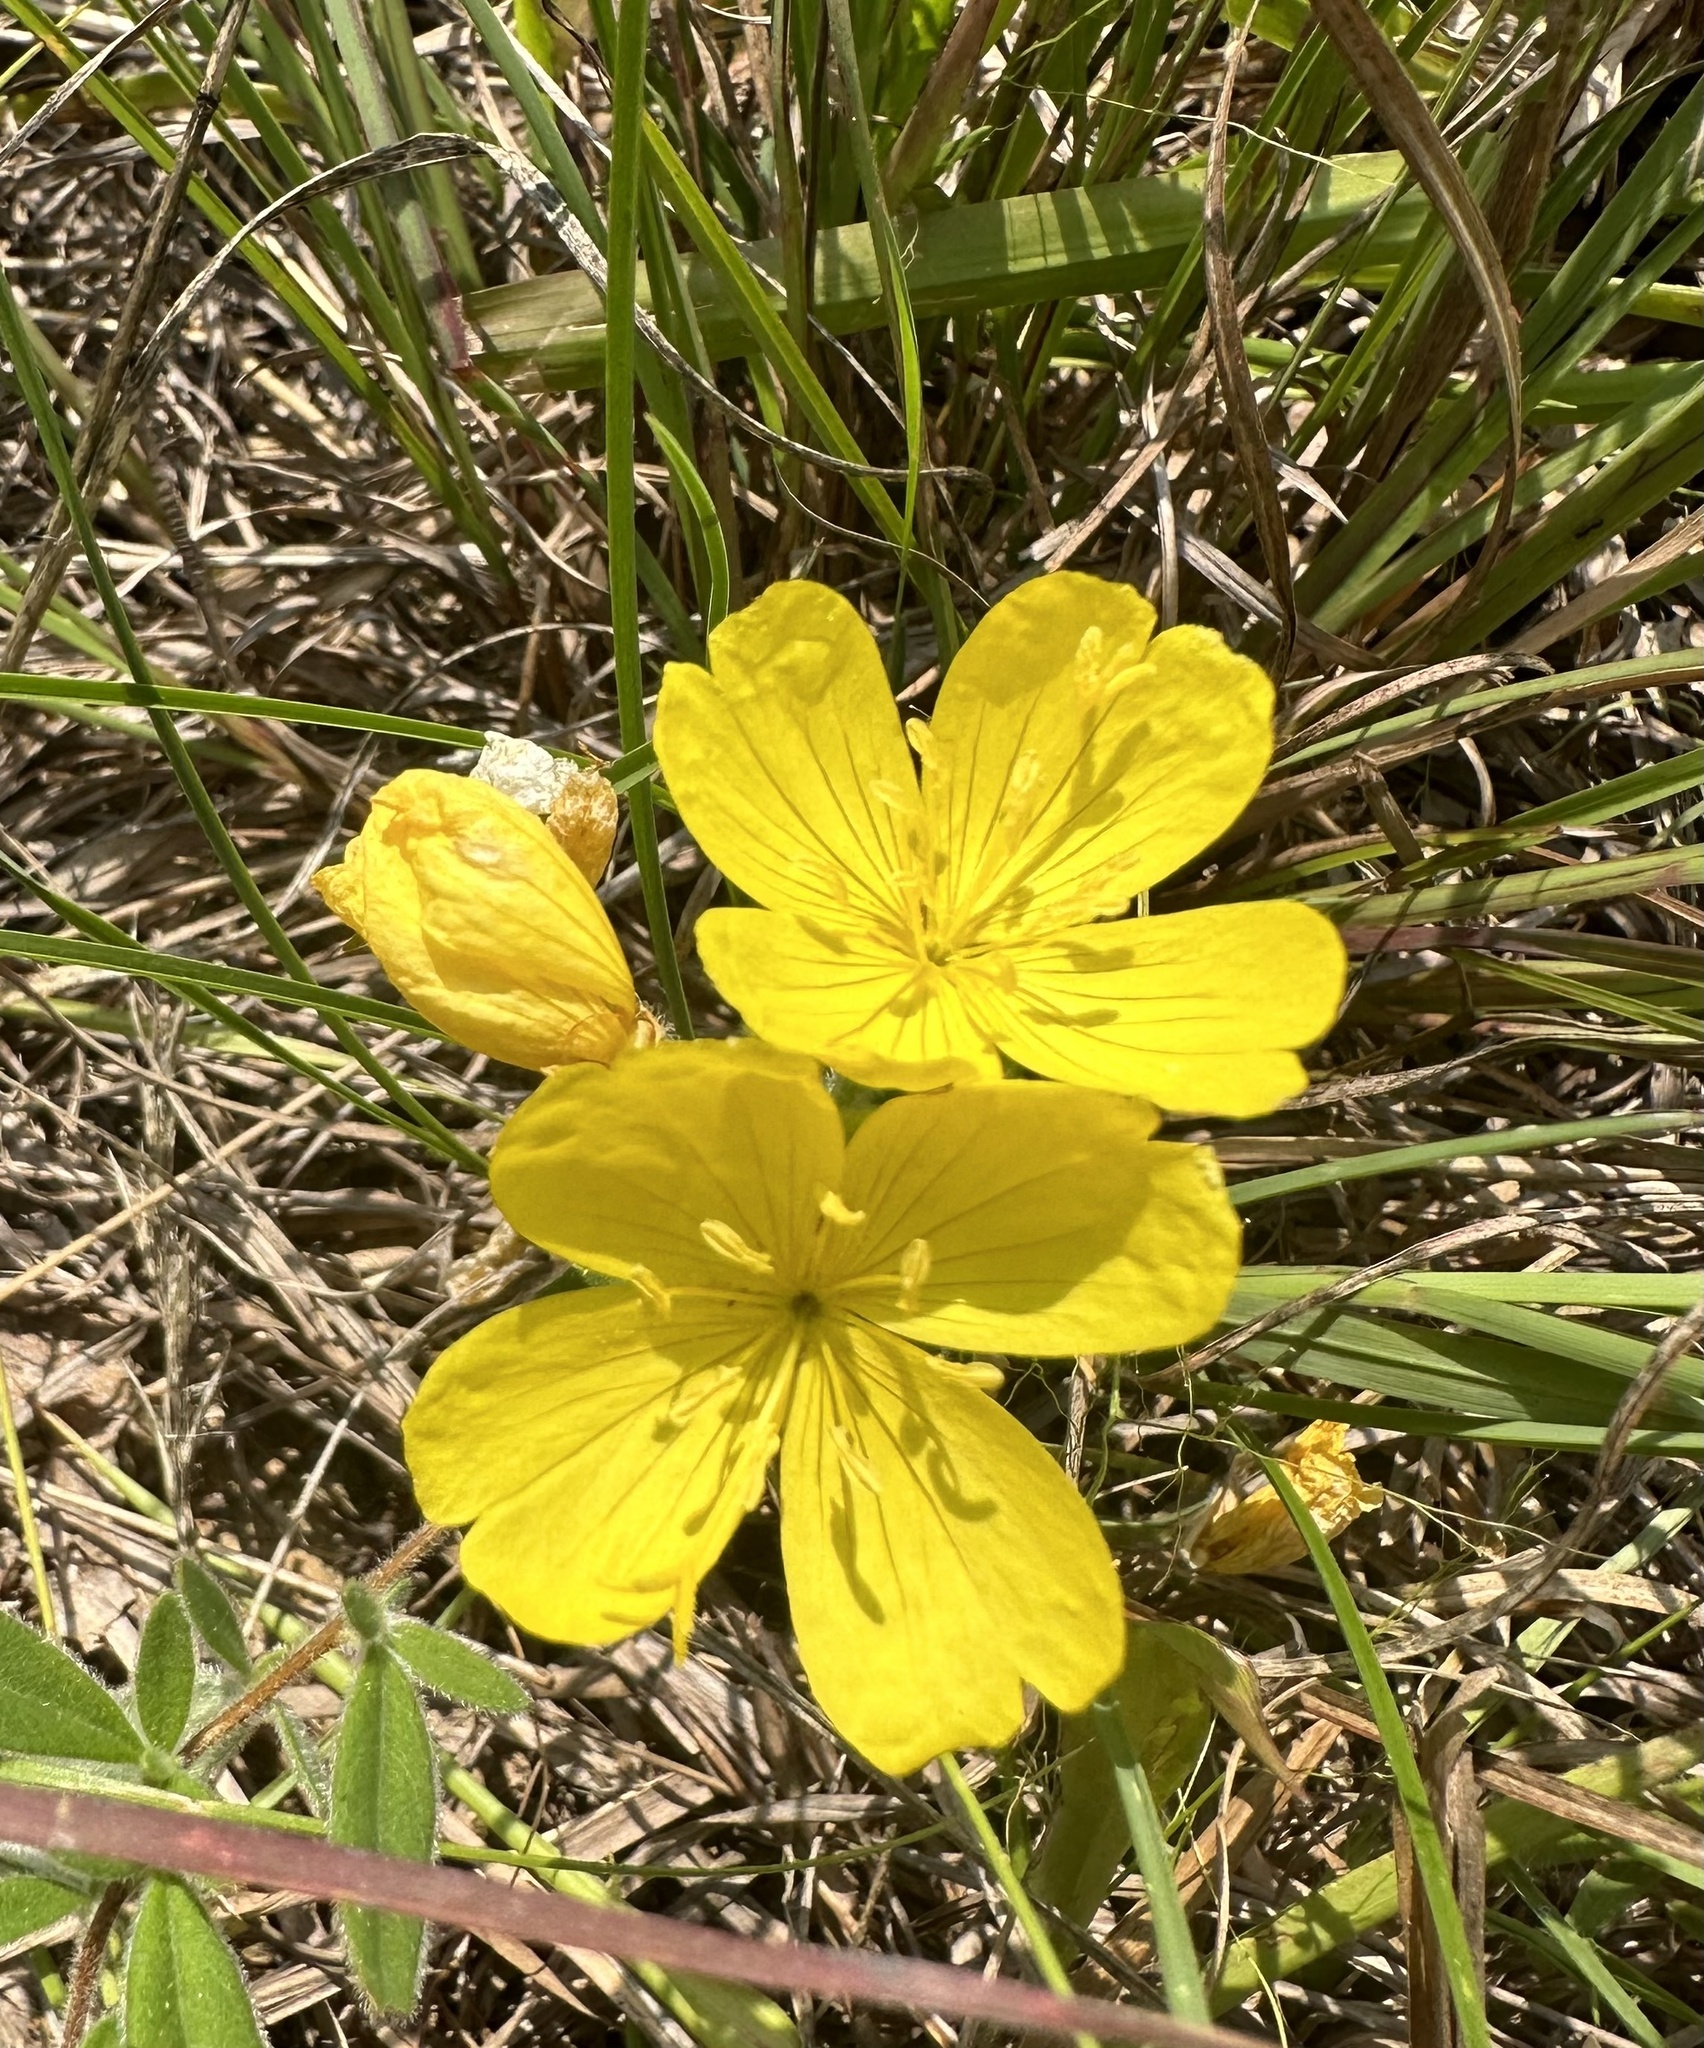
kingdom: Plantae
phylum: Tracheophyta
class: Magnoliopsida
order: Myrtales
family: Onagraceae
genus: Oenothera
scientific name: Oenothera fruticosa
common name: Southern sundrops
